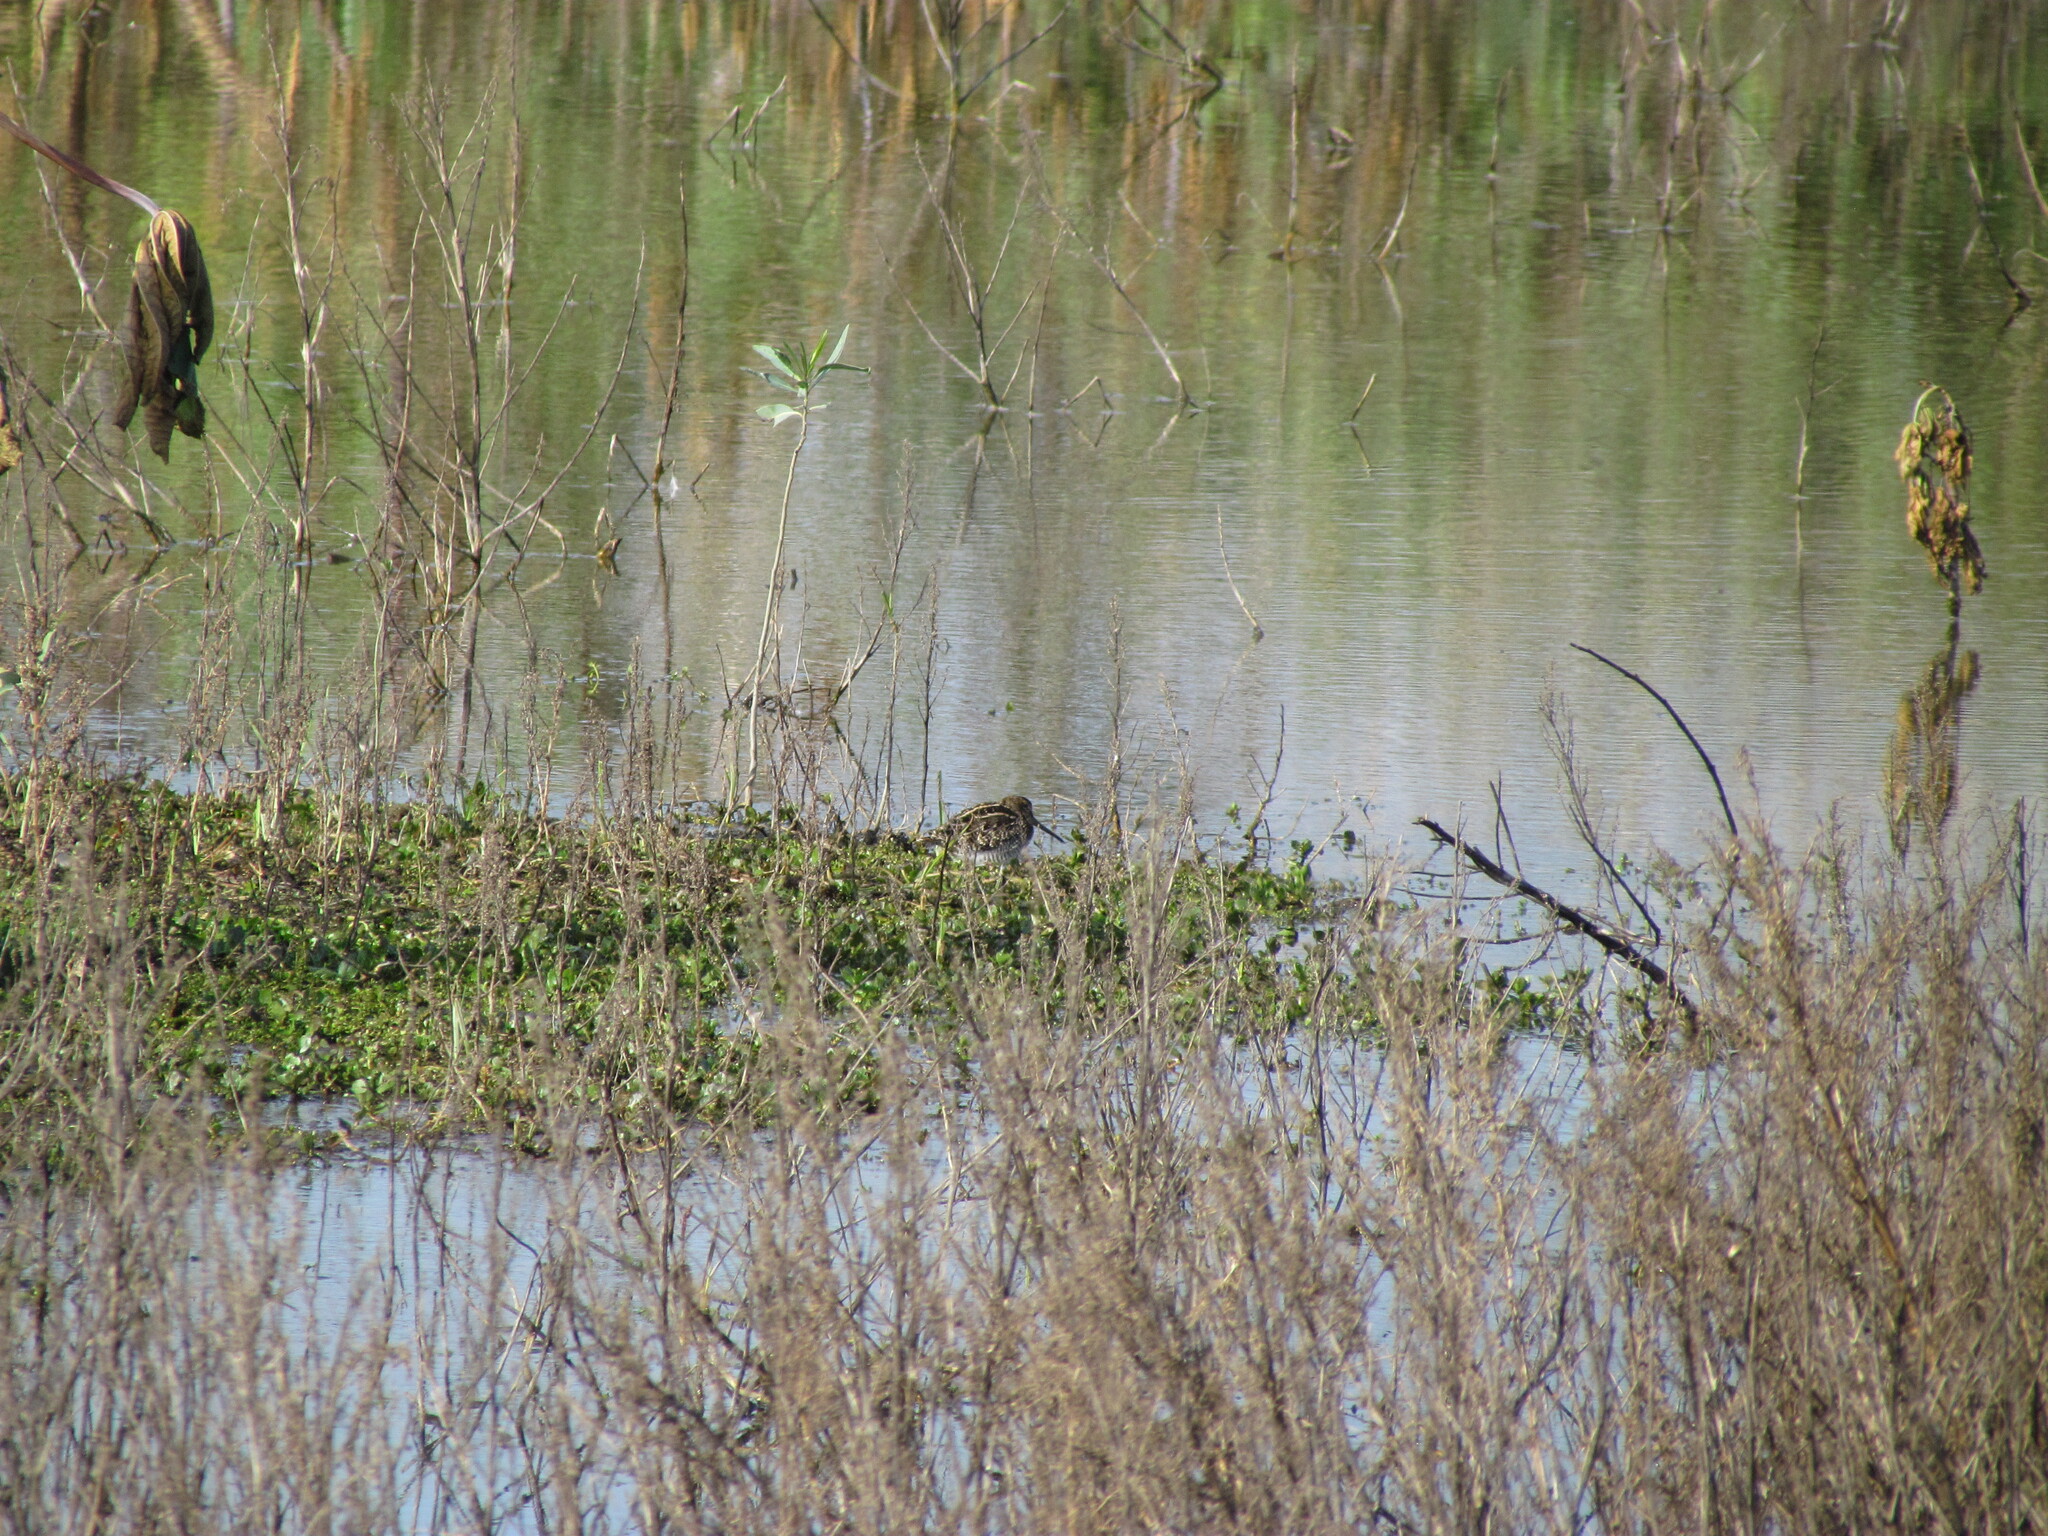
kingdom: Animalia
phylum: Chordata
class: Aves
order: Charadriiformes
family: Scolopacidae
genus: Gallinago
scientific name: Gallinago paraguaiae
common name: South american snipe
